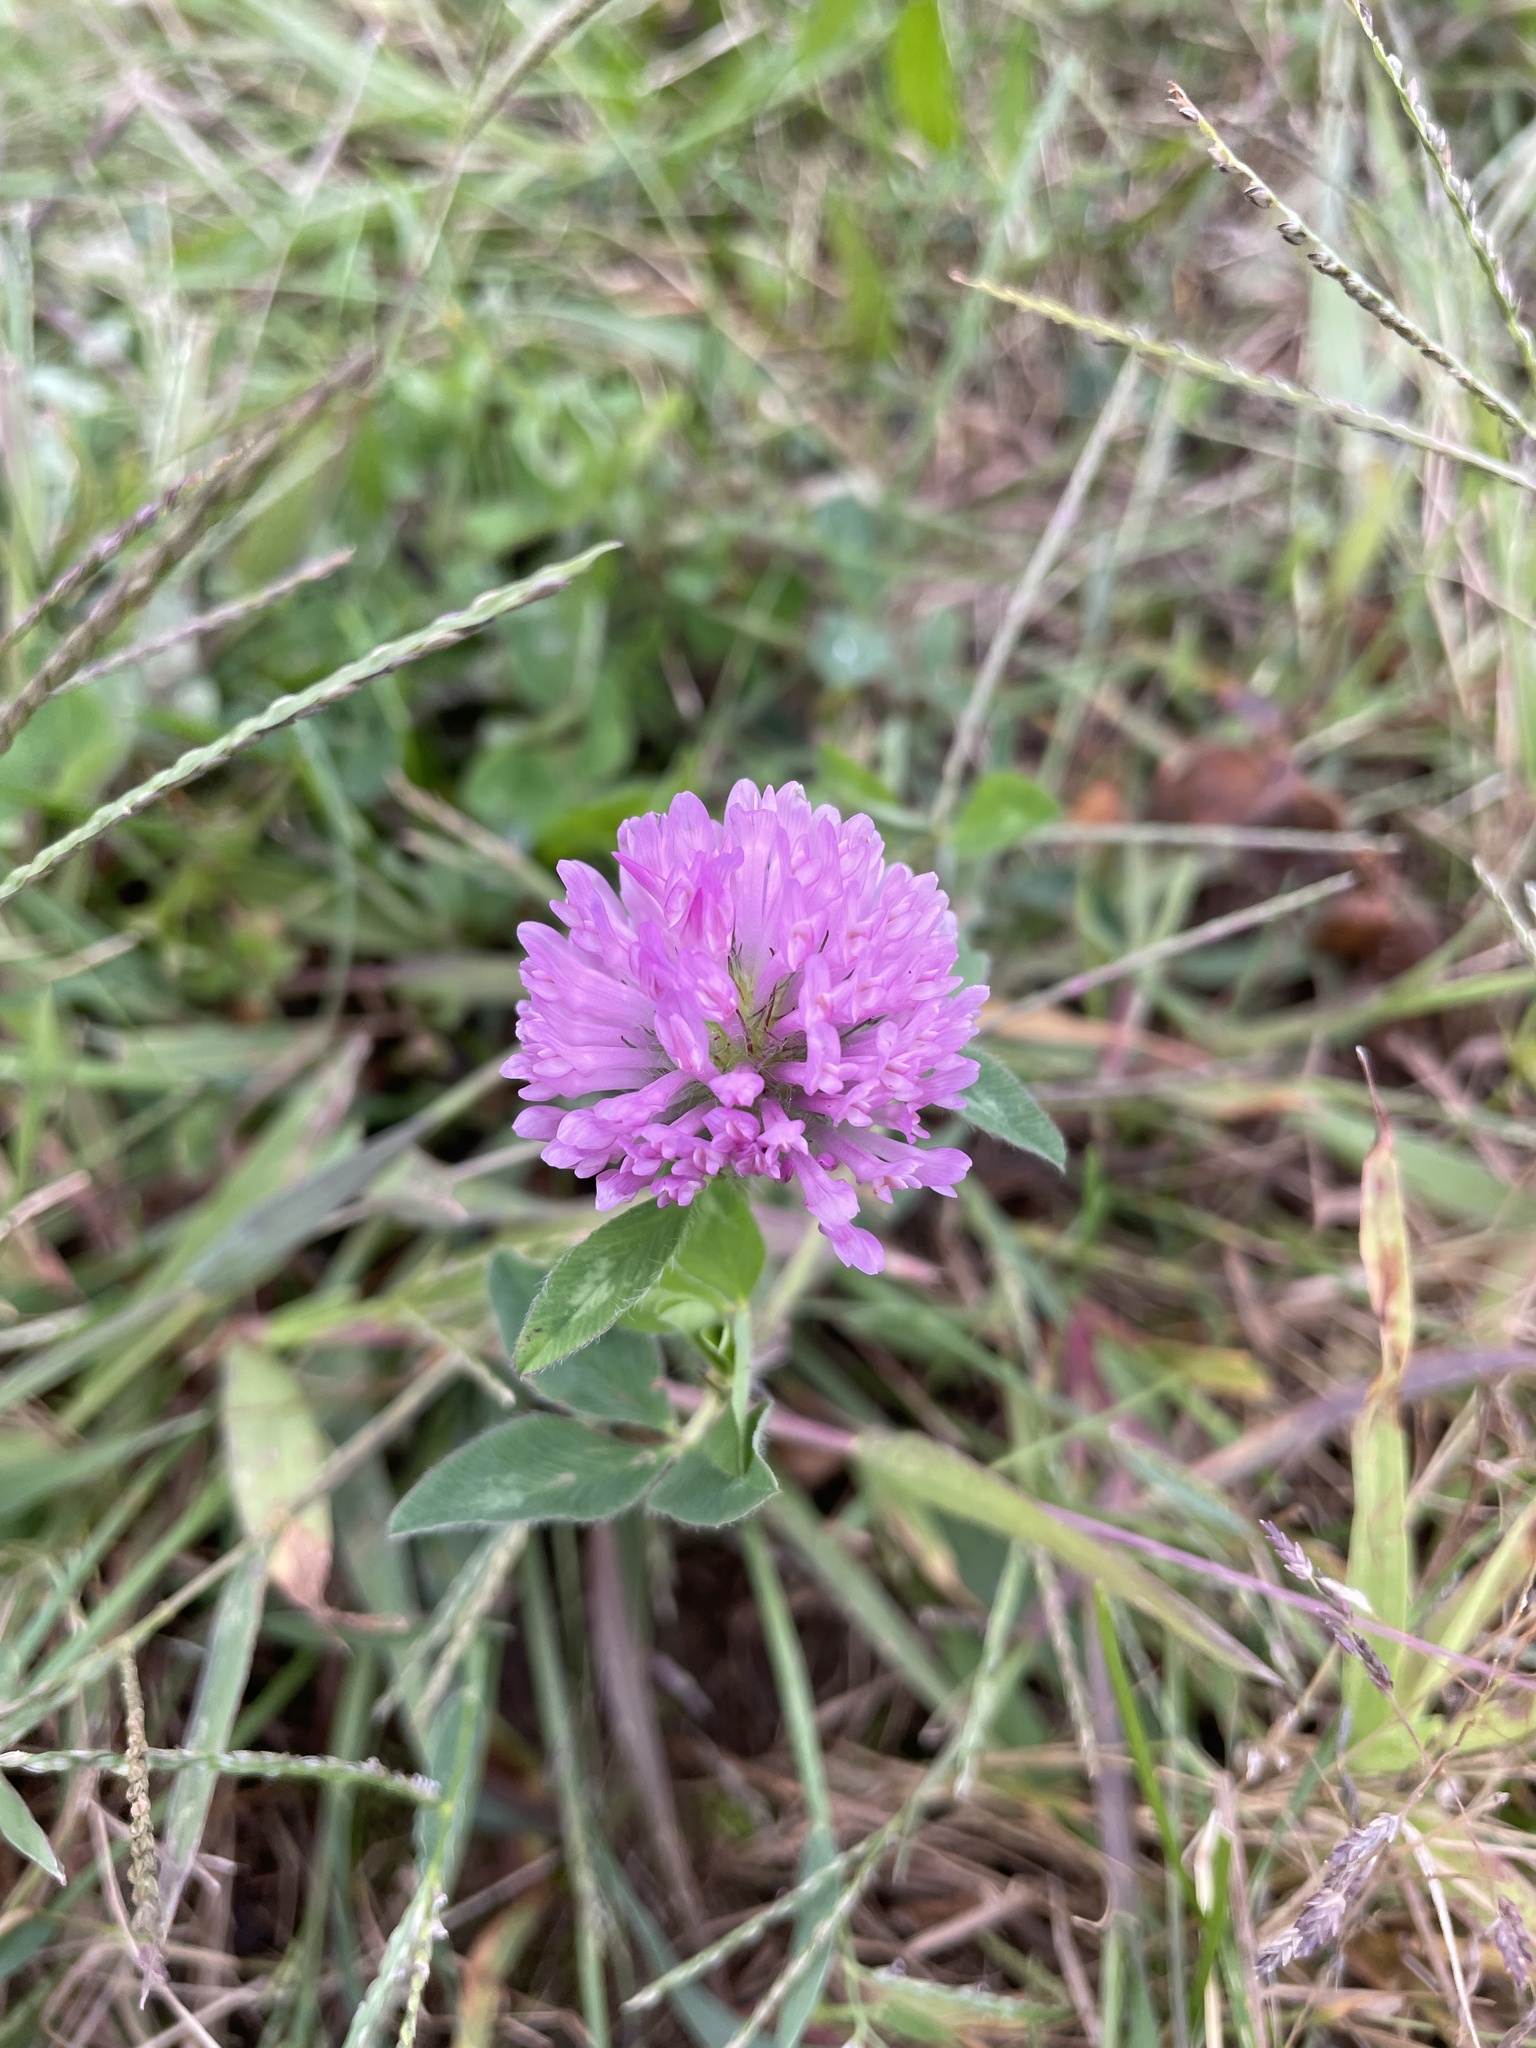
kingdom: Plantae
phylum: Tracheophyta
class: Magnoliopsida
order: Fabales
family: Fabaceae
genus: Trifolium
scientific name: Trifolium pratense
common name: Red clover
